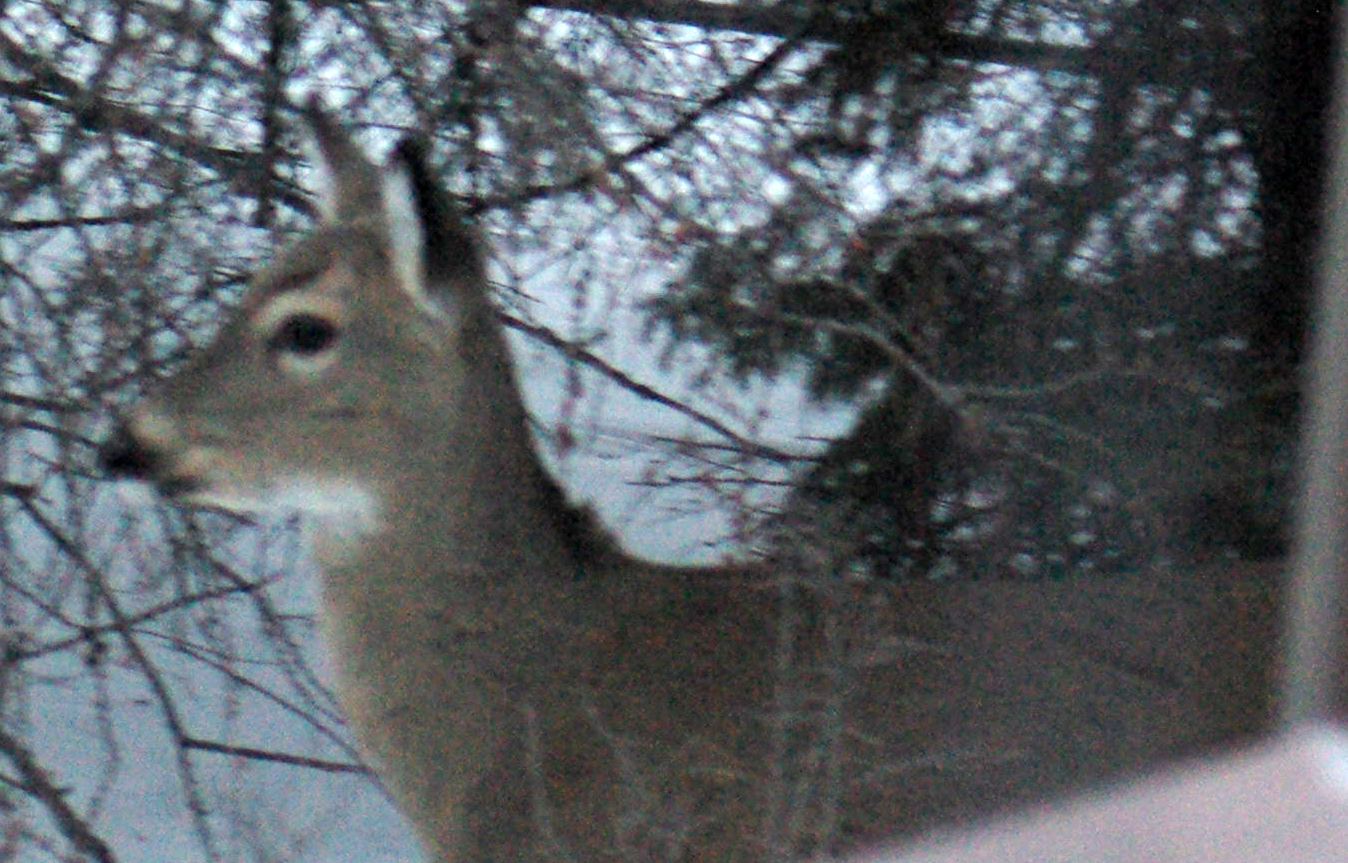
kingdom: Animalia
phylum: Chordata
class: Mammalia
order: Artiodactyla
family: Cervidae
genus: Odocoileus
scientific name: Odocoileus virginianus
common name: White-tailed deer
